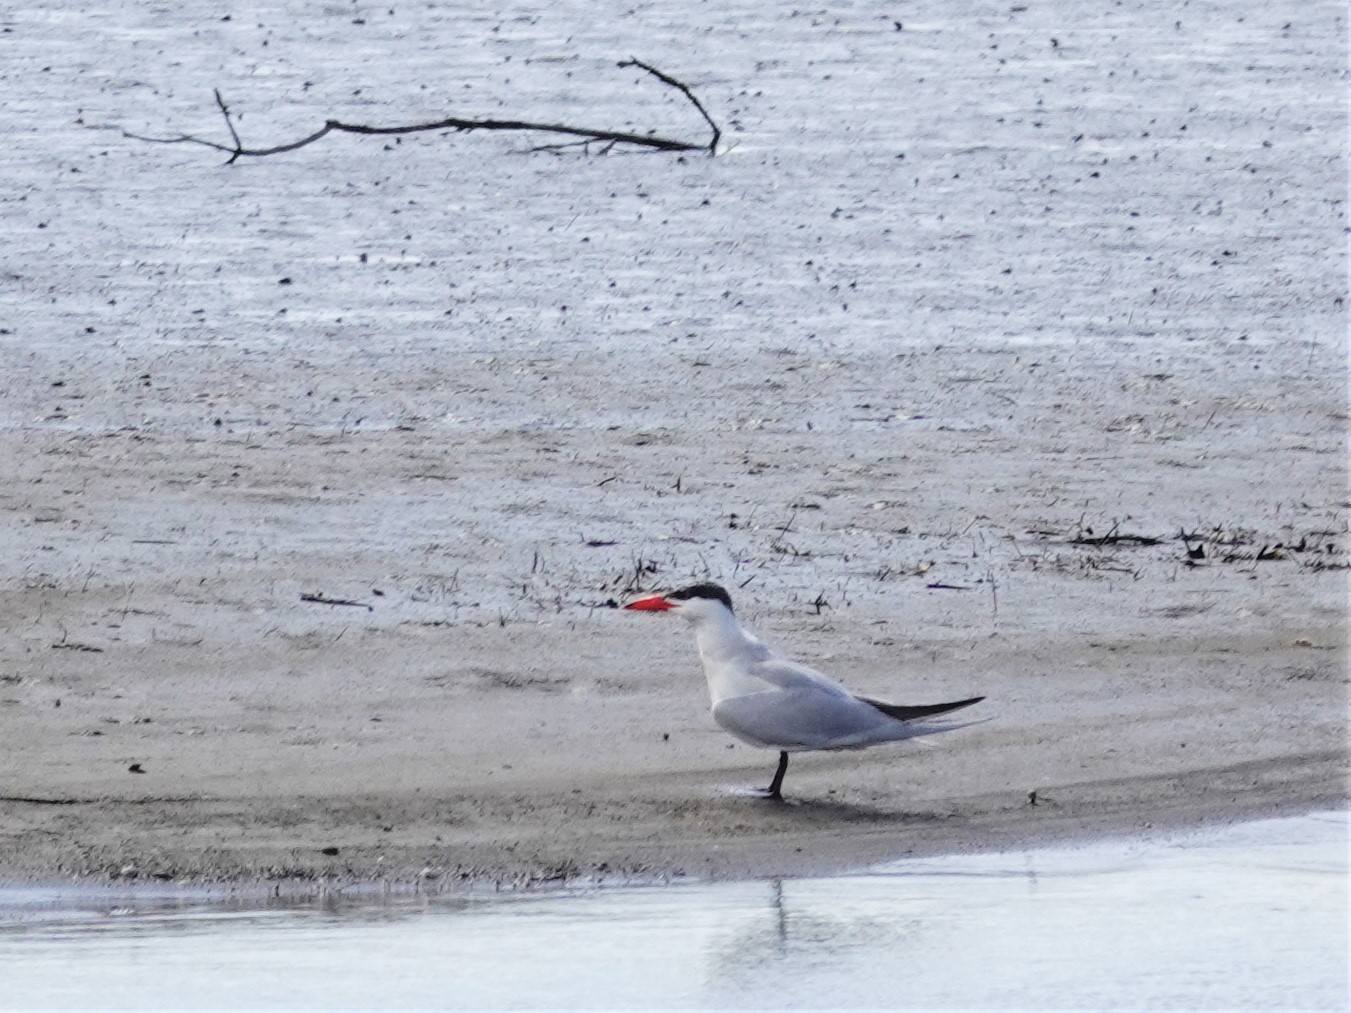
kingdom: Animalia
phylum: Chordata
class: Aves
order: Charadriiformes
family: Laridae
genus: Hydroprogne
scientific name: Hydroprogne caspia
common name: Caspian tern
